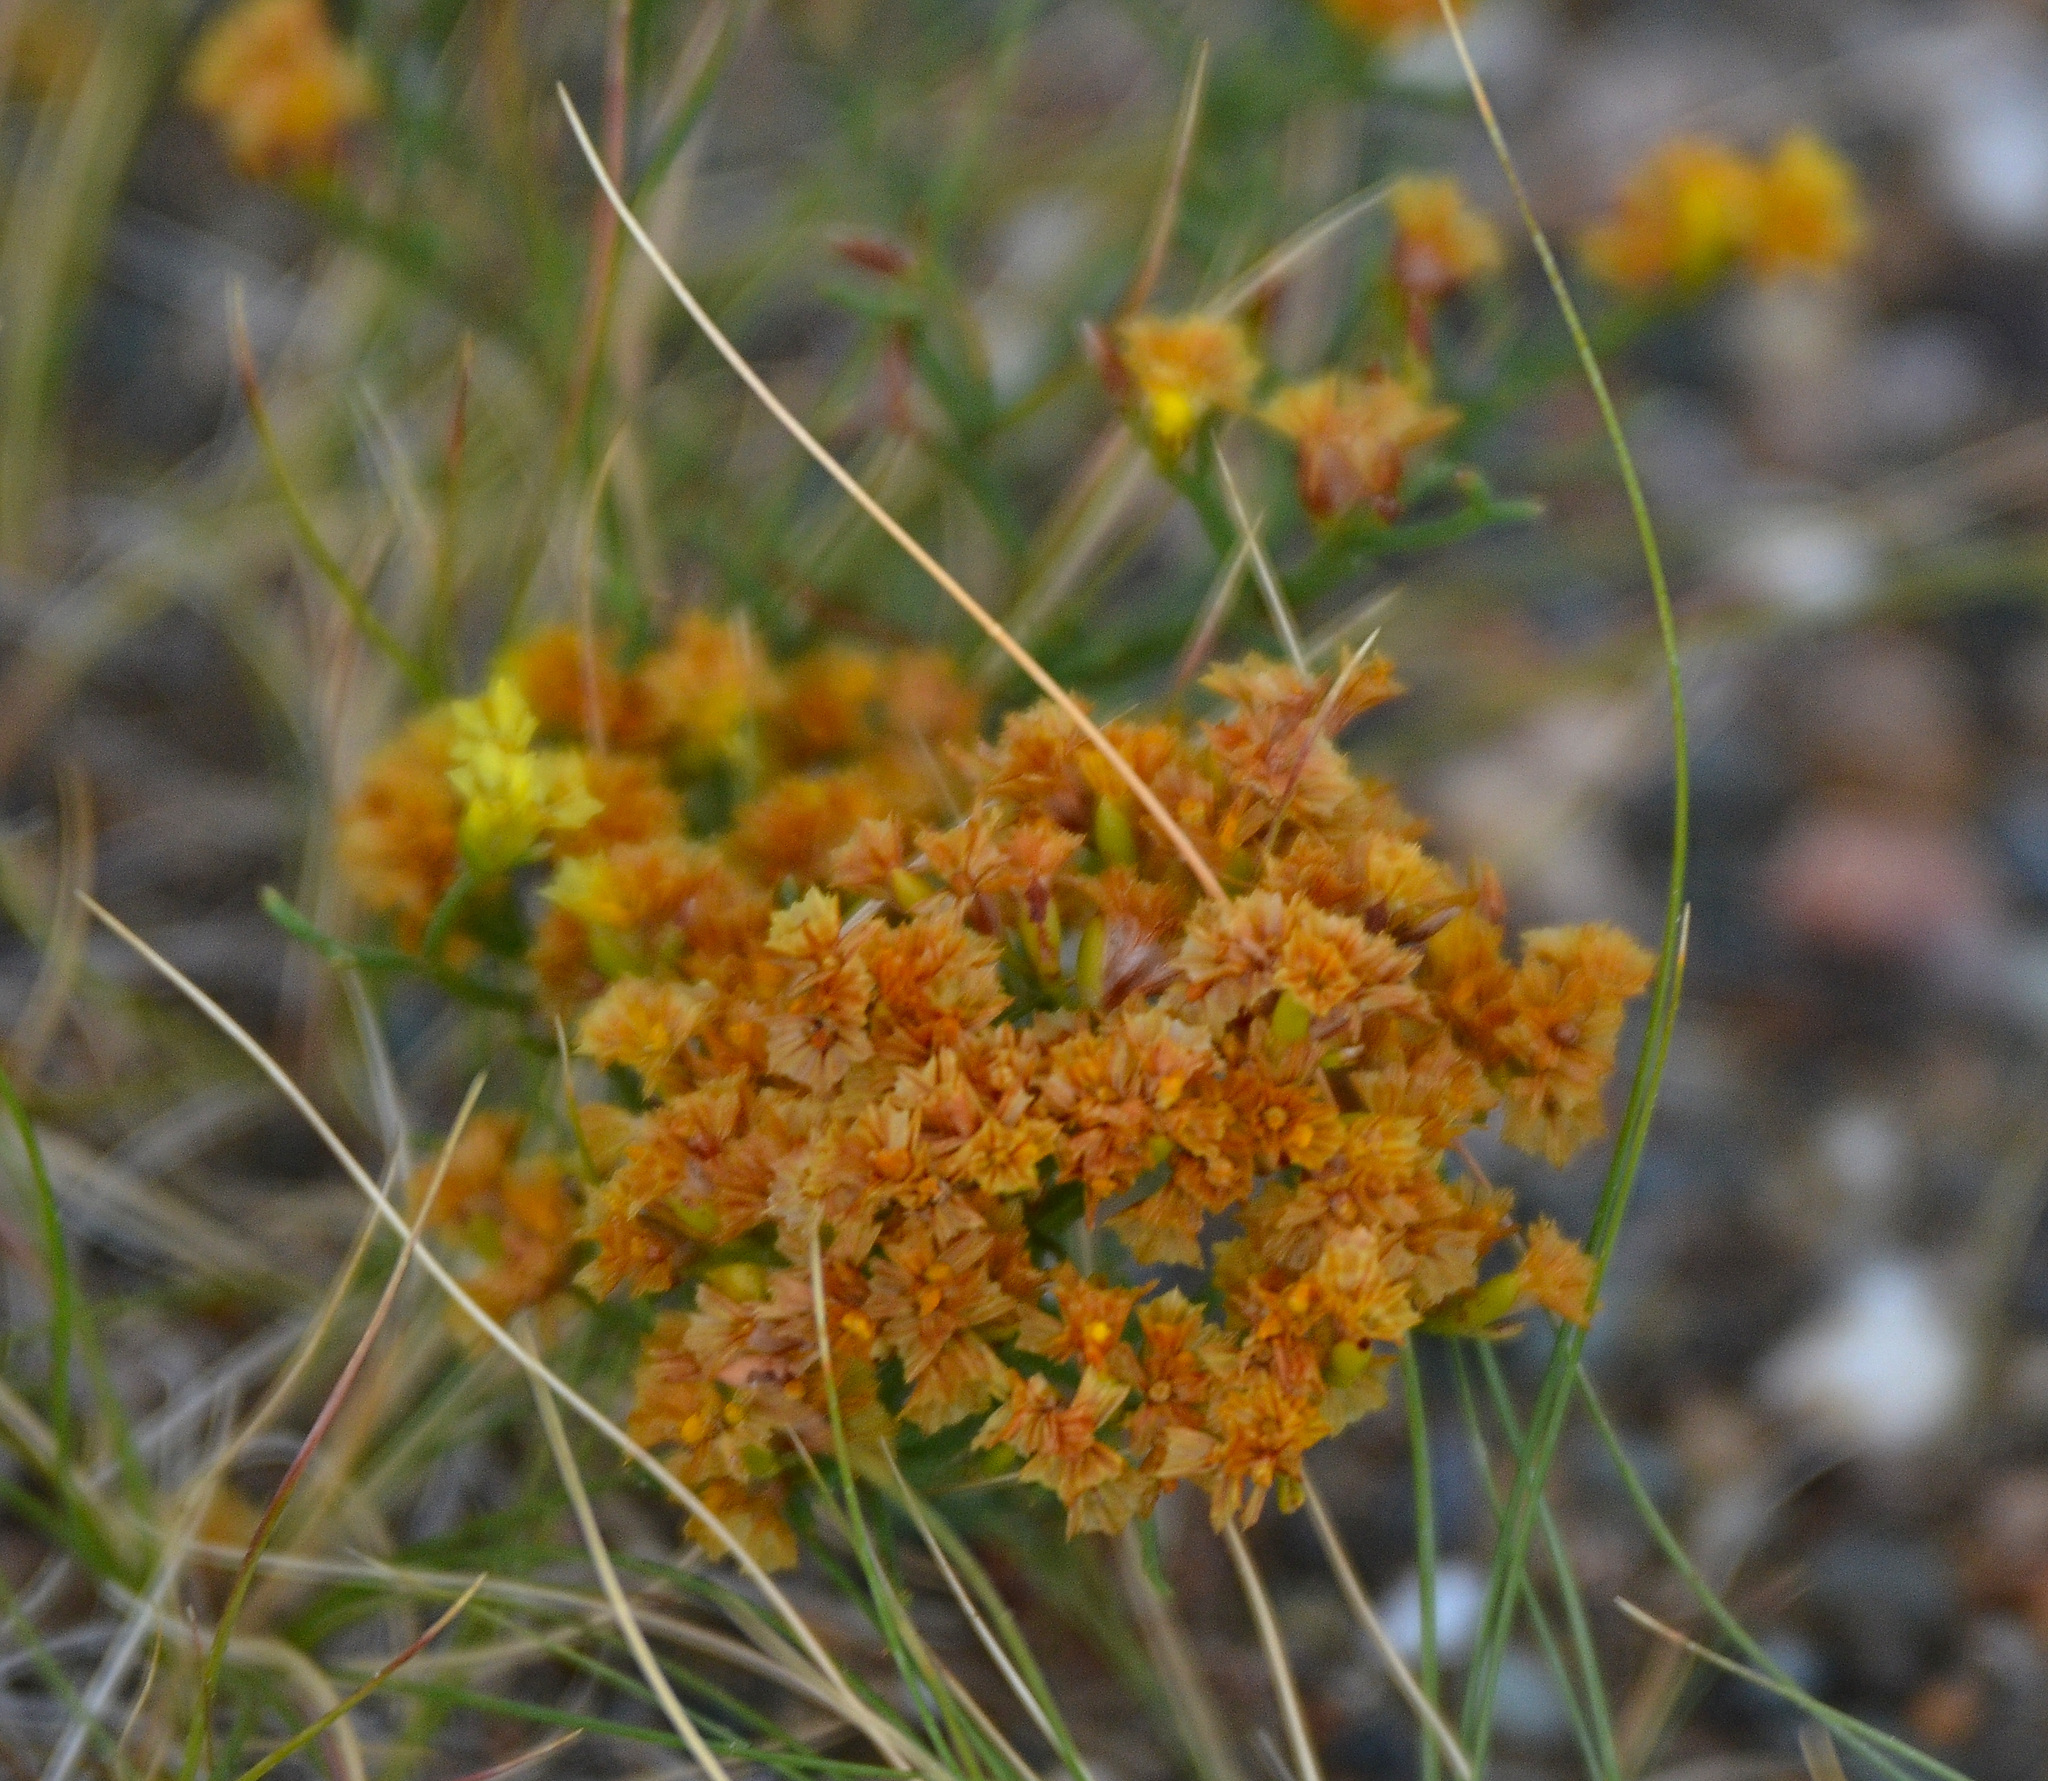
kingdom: Plantae
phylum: Tracheophyta
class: Magnoliopsida
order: Caryophyllales
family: Plumbaginaceae
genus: Limonium
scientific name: Limonium aureum
